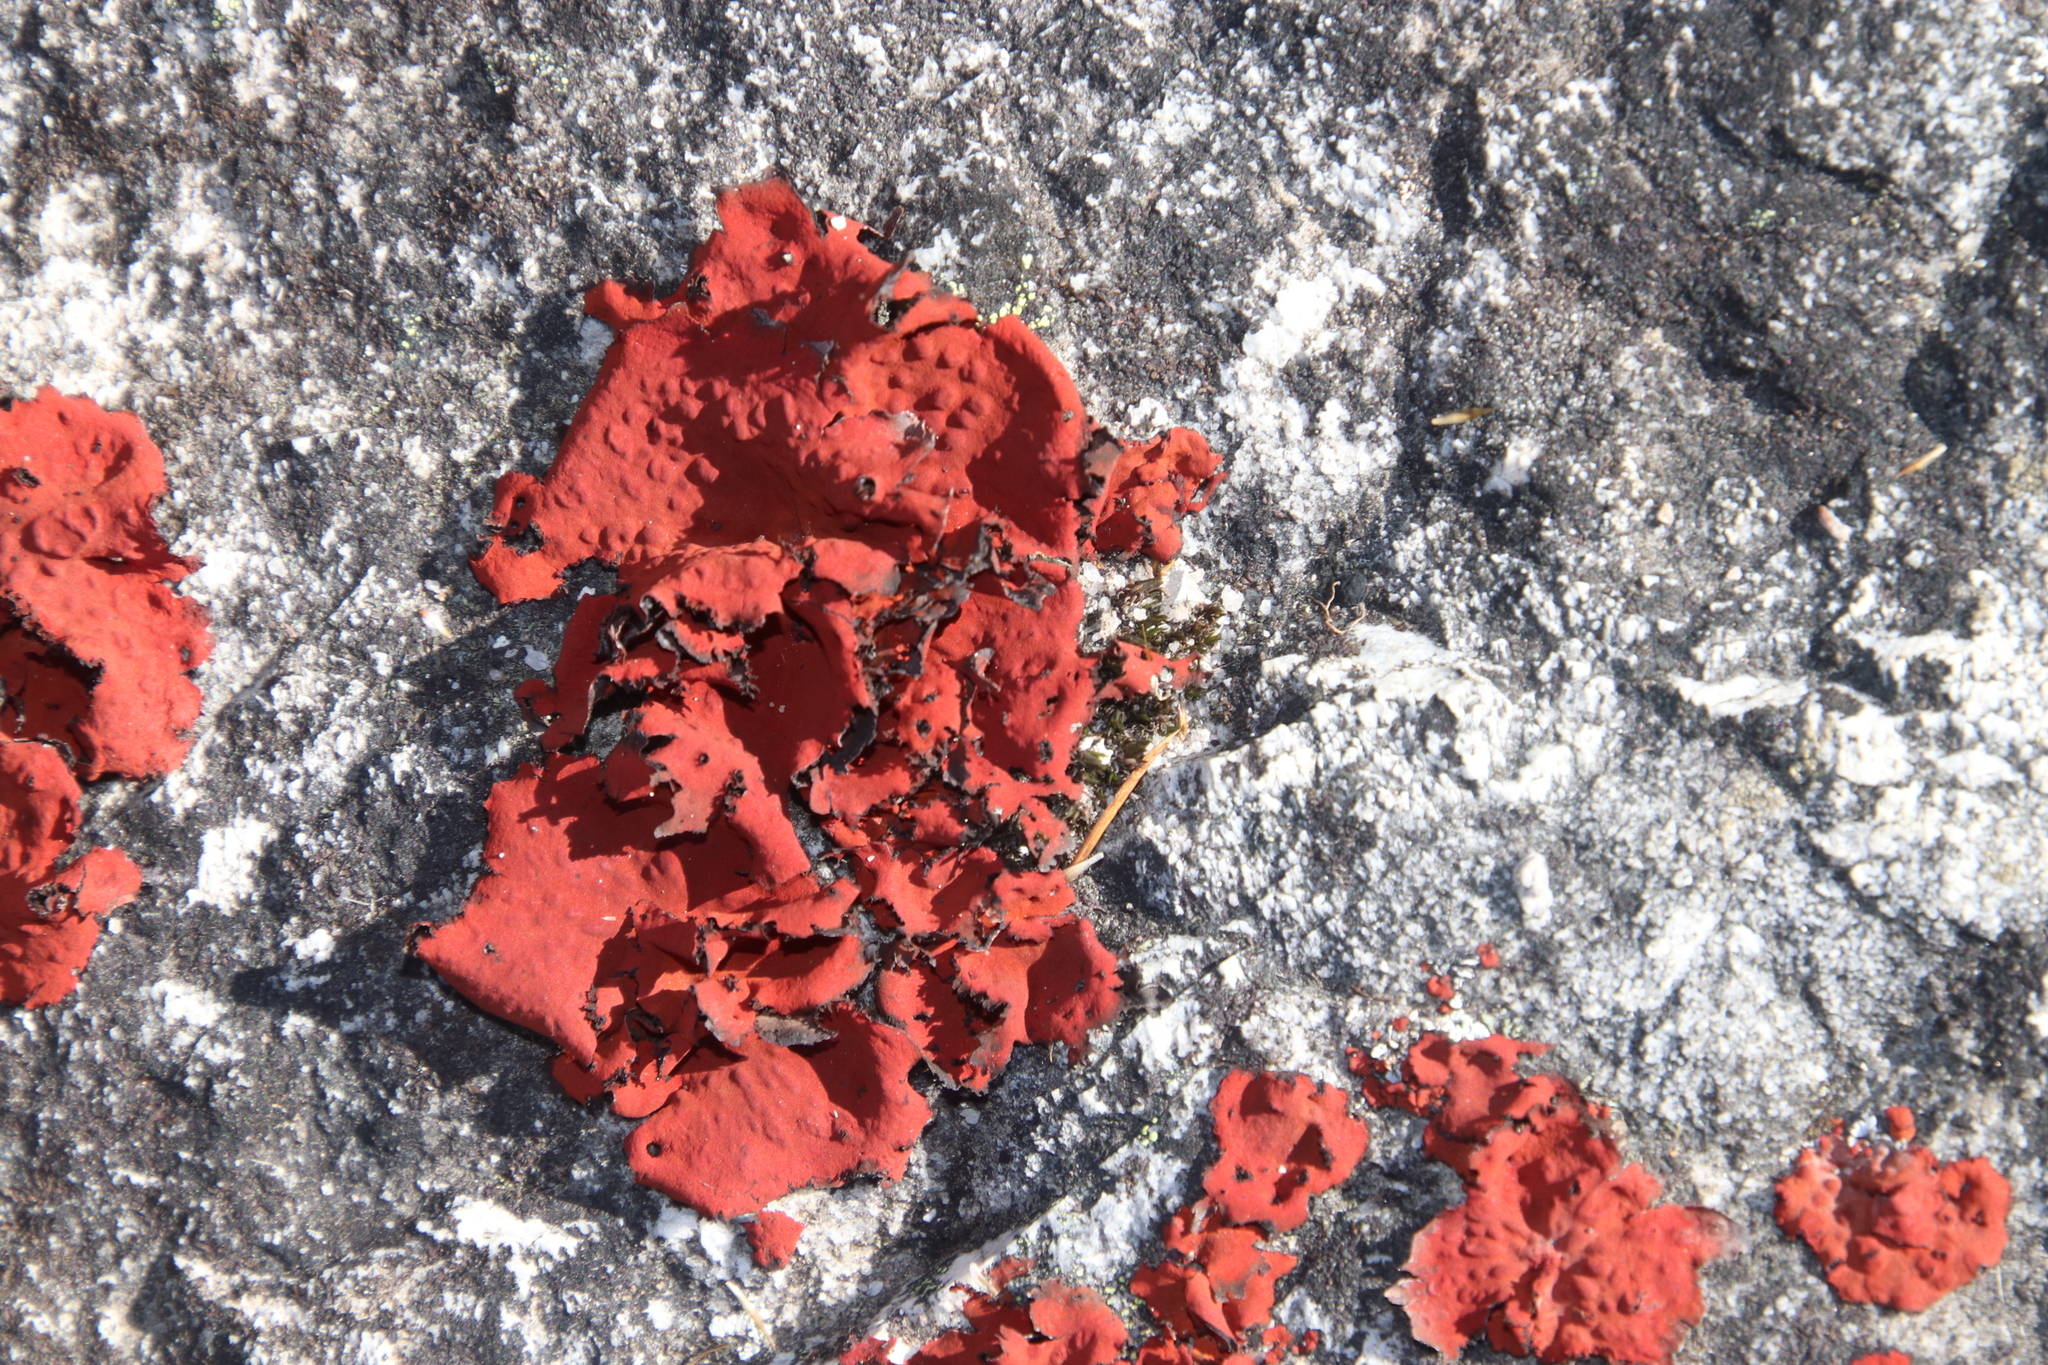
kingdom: Fungi
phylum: Ascomycota
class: Lecanoromycetes
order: Umbilicariales
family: Umbilicariaceae
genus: Lasallia
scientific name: Lasallia rubiginosa
